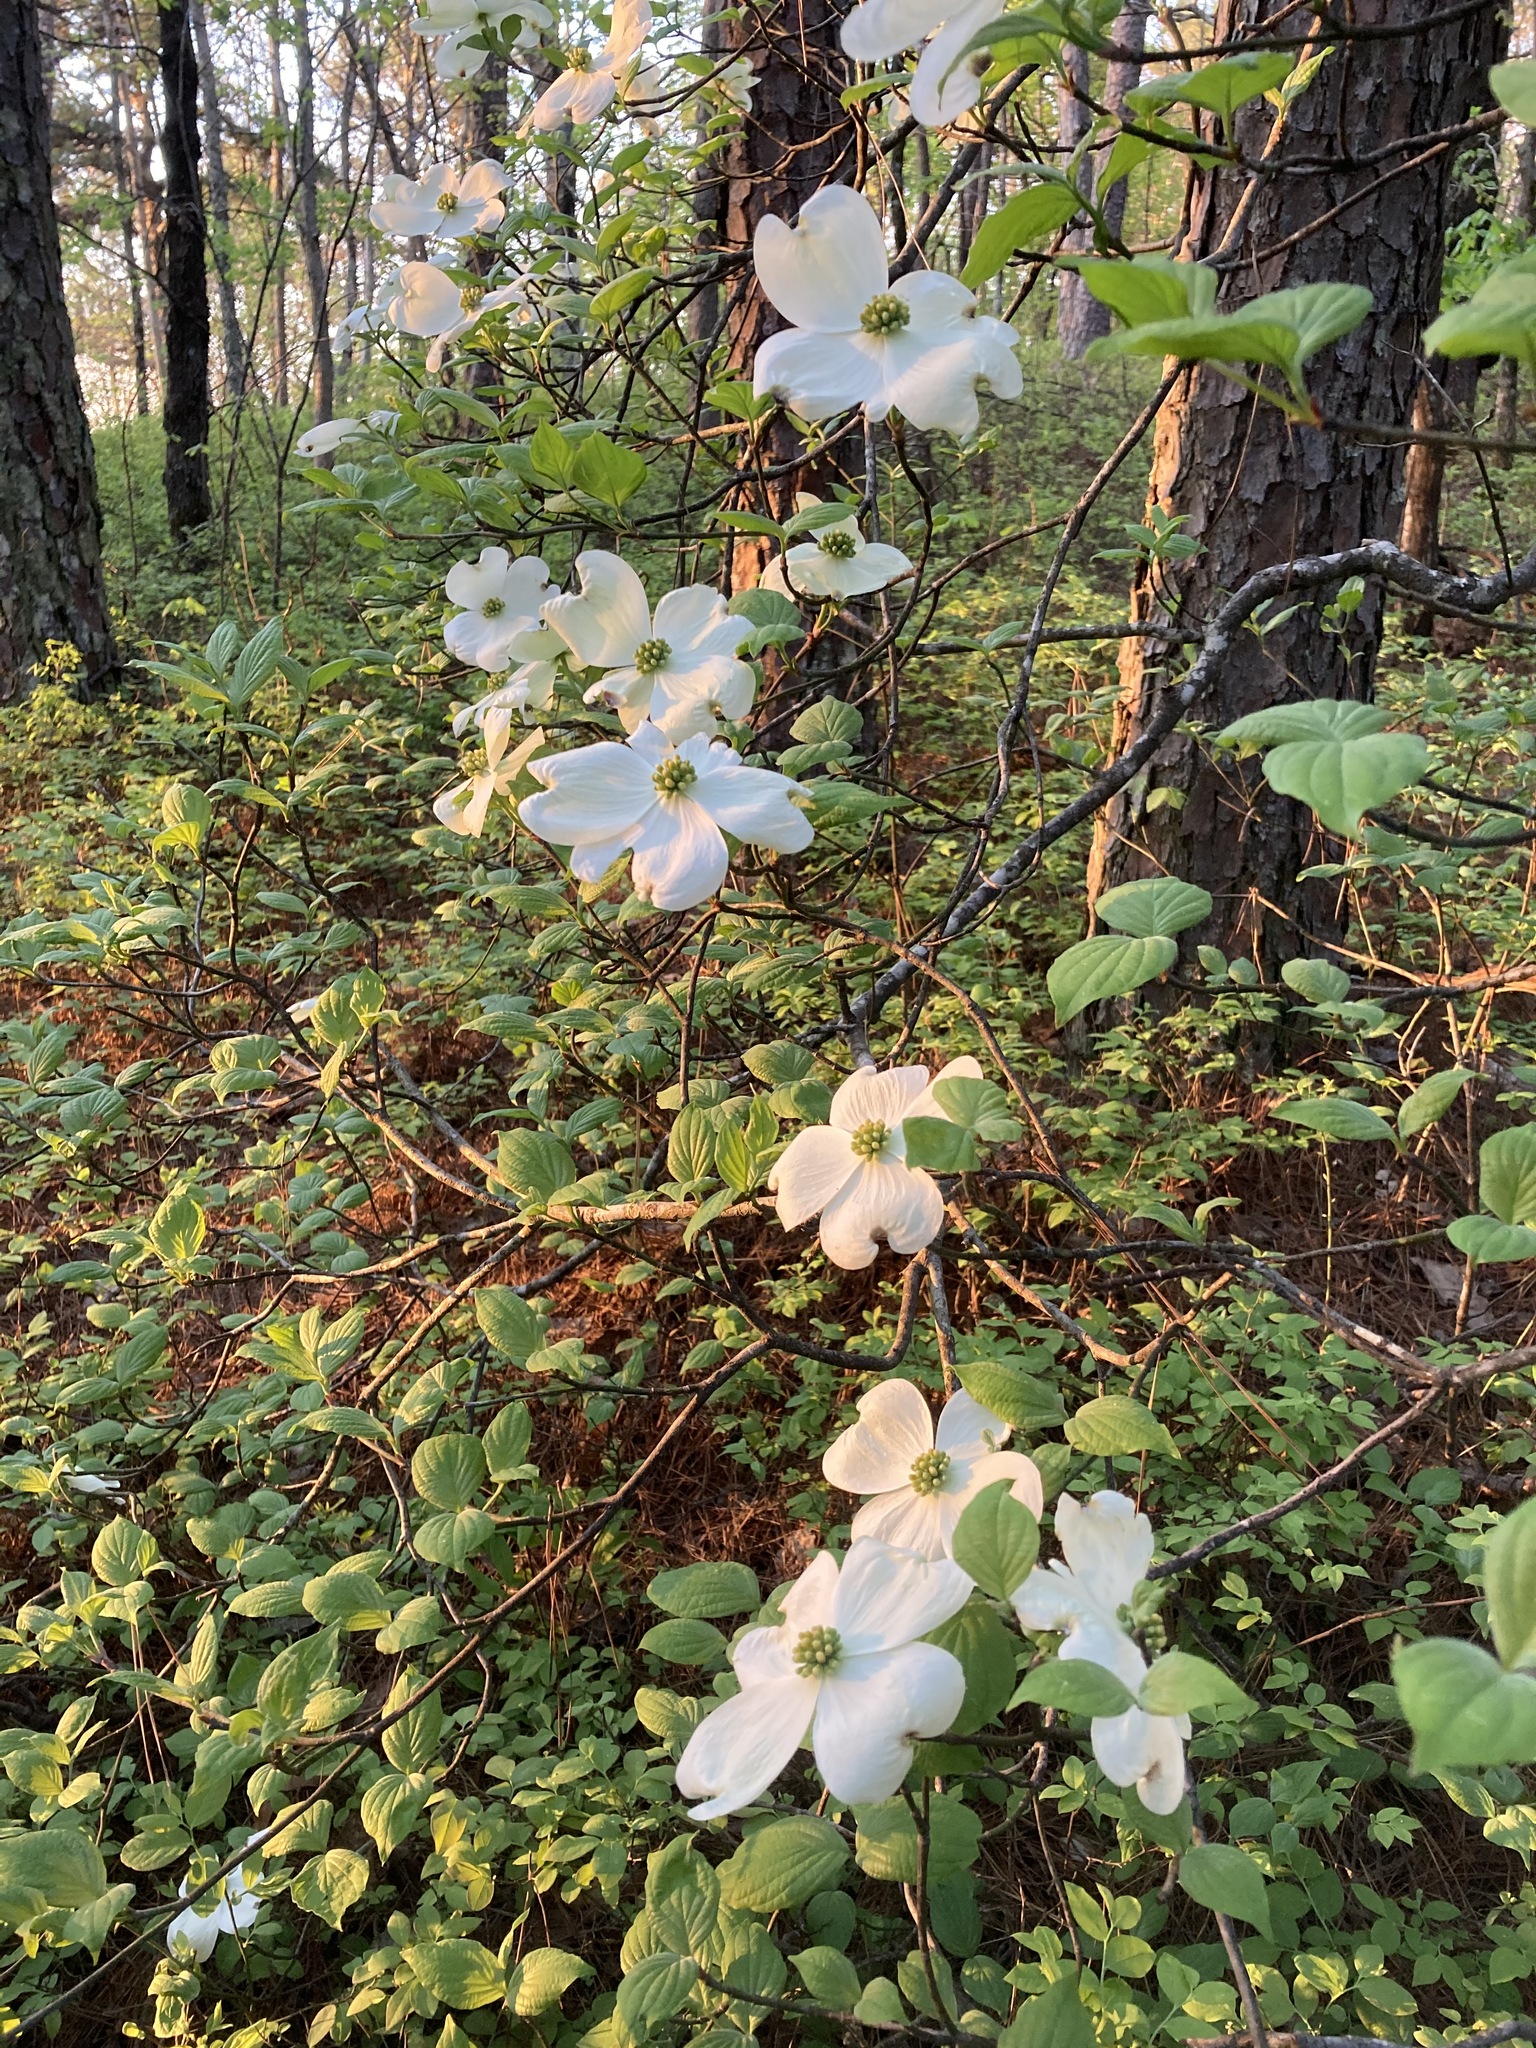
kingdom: Plantae
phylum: Tracheophyta
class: Magnoliopsida
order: Cornales
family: Cornaceae
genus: Cornus
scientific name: Cornus florida
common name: Flowering dogwood
